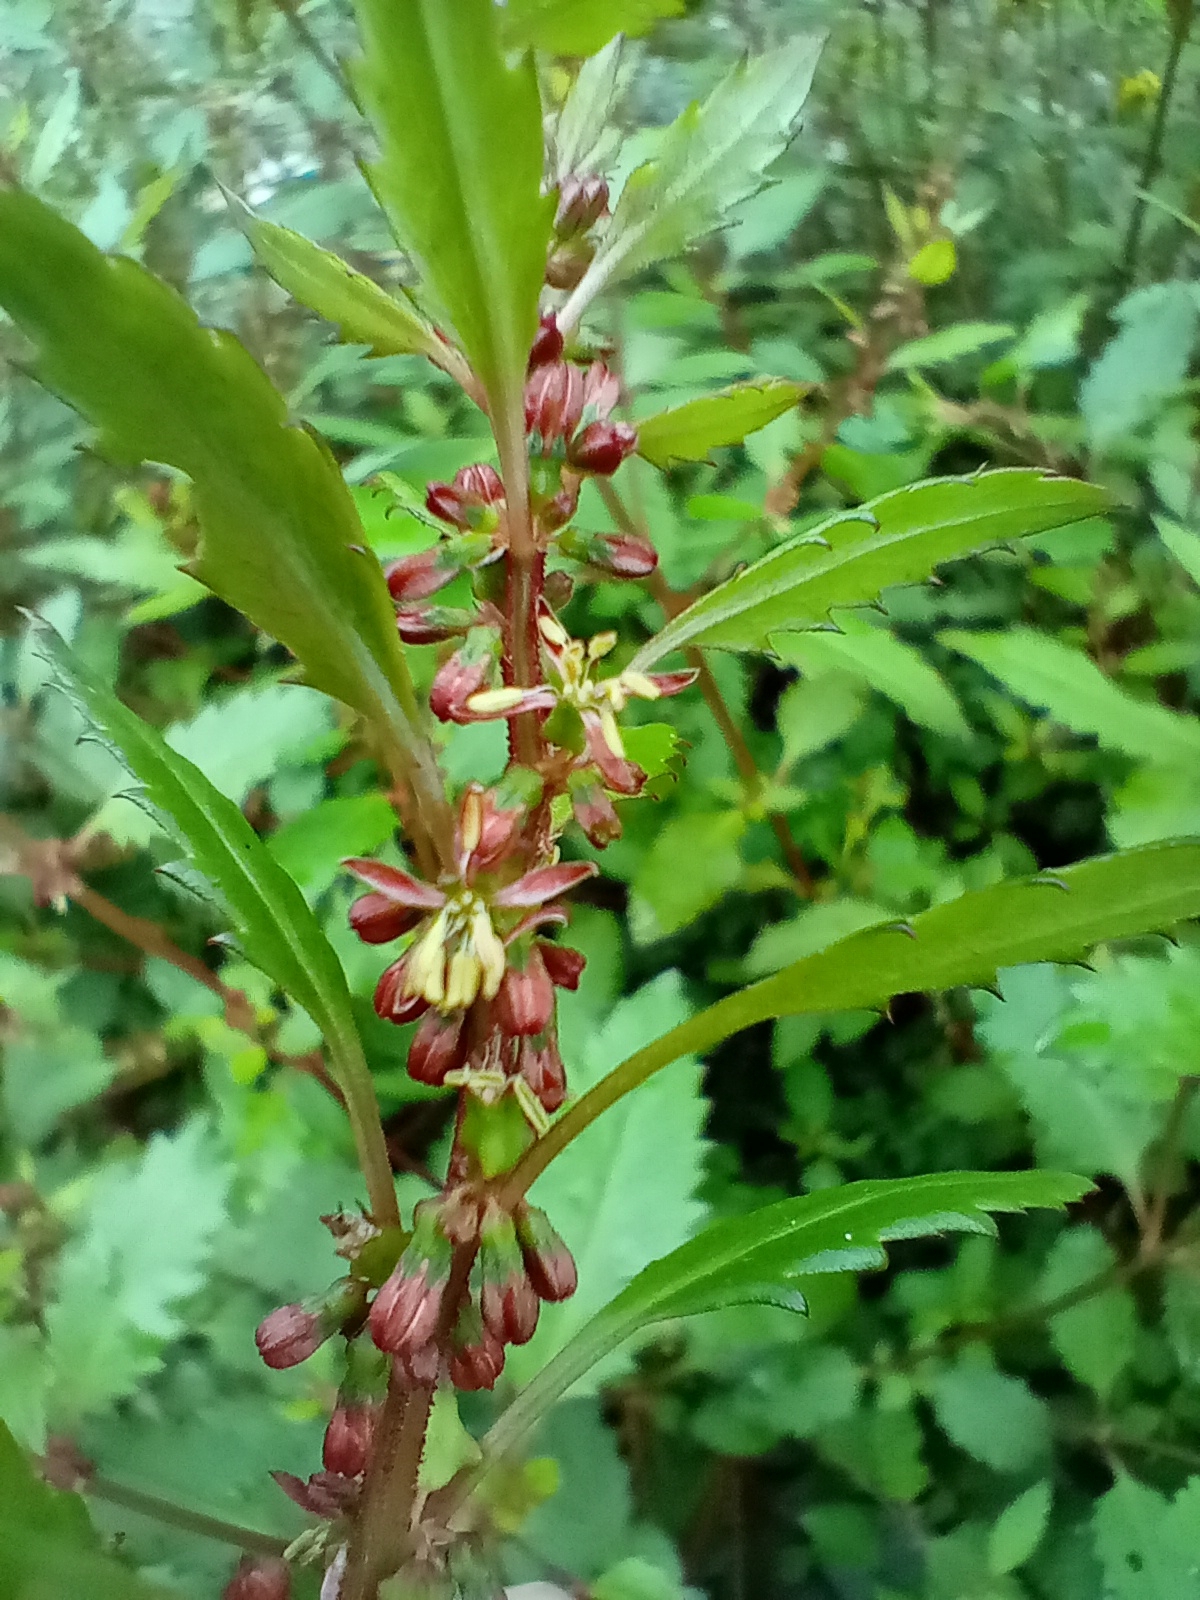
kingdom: Plantae
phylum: Tracheophyta
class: Magnoliopsida
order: Saxifragales
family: Haloragaceae
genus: Haloragis
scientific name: Haloragis erecta
